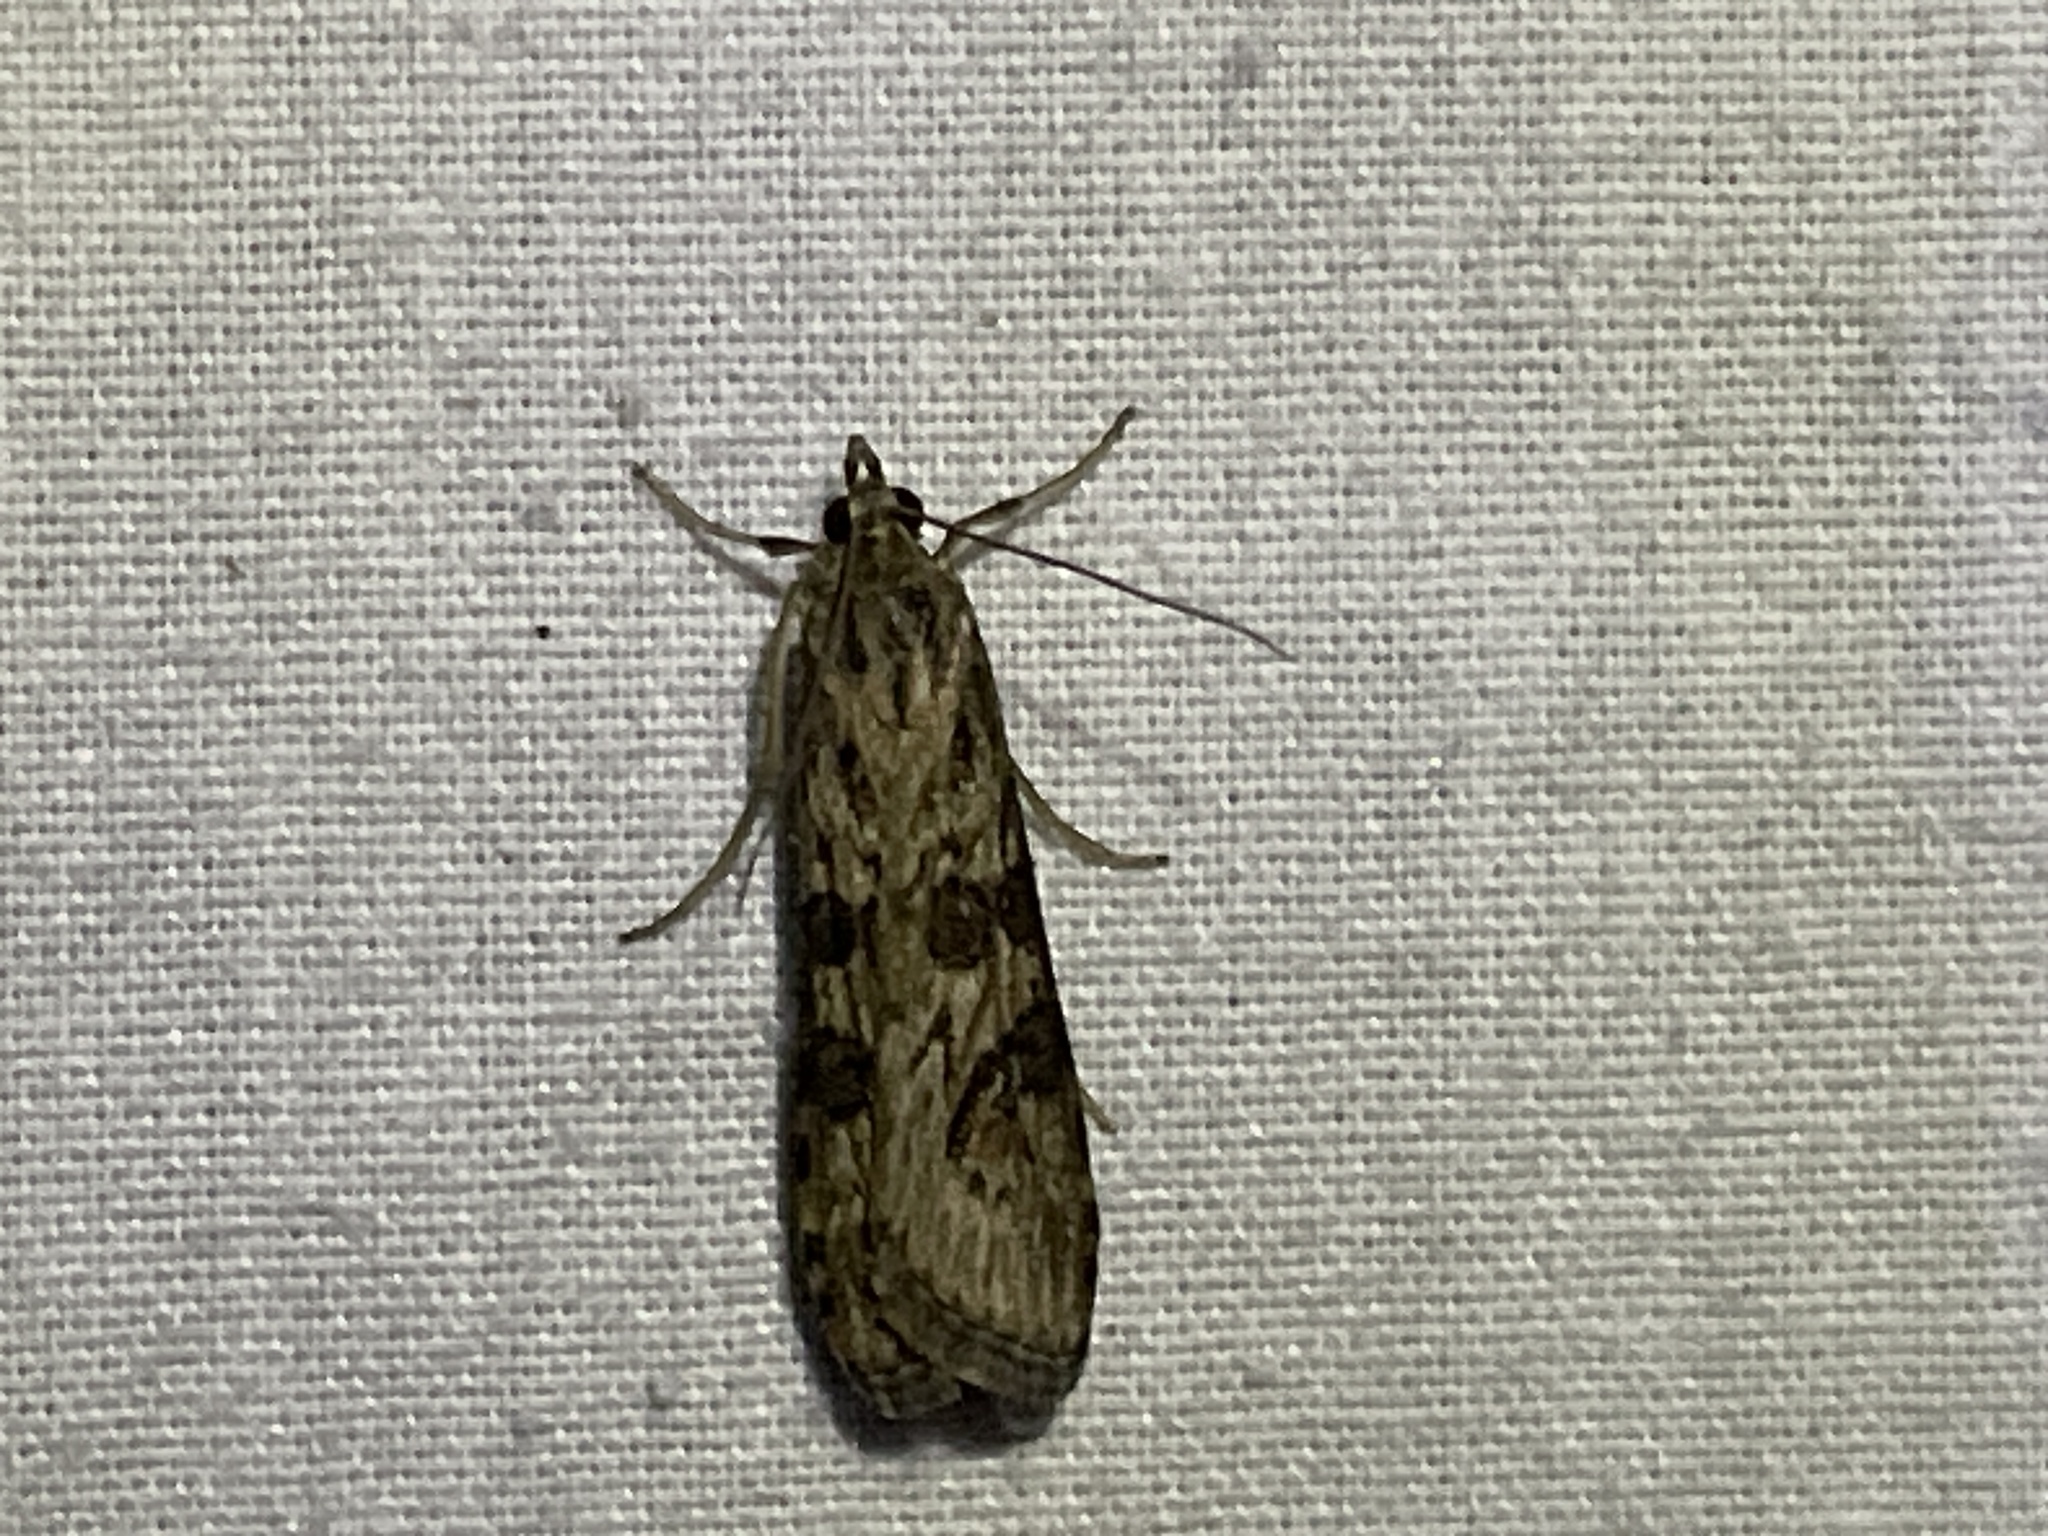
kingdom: Animalia
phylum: Arthropoda
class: Insecta
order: Lepidoptera
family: Crambidae
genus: Nomophila
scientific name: Nomophila nearctica
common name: American rush veneer
